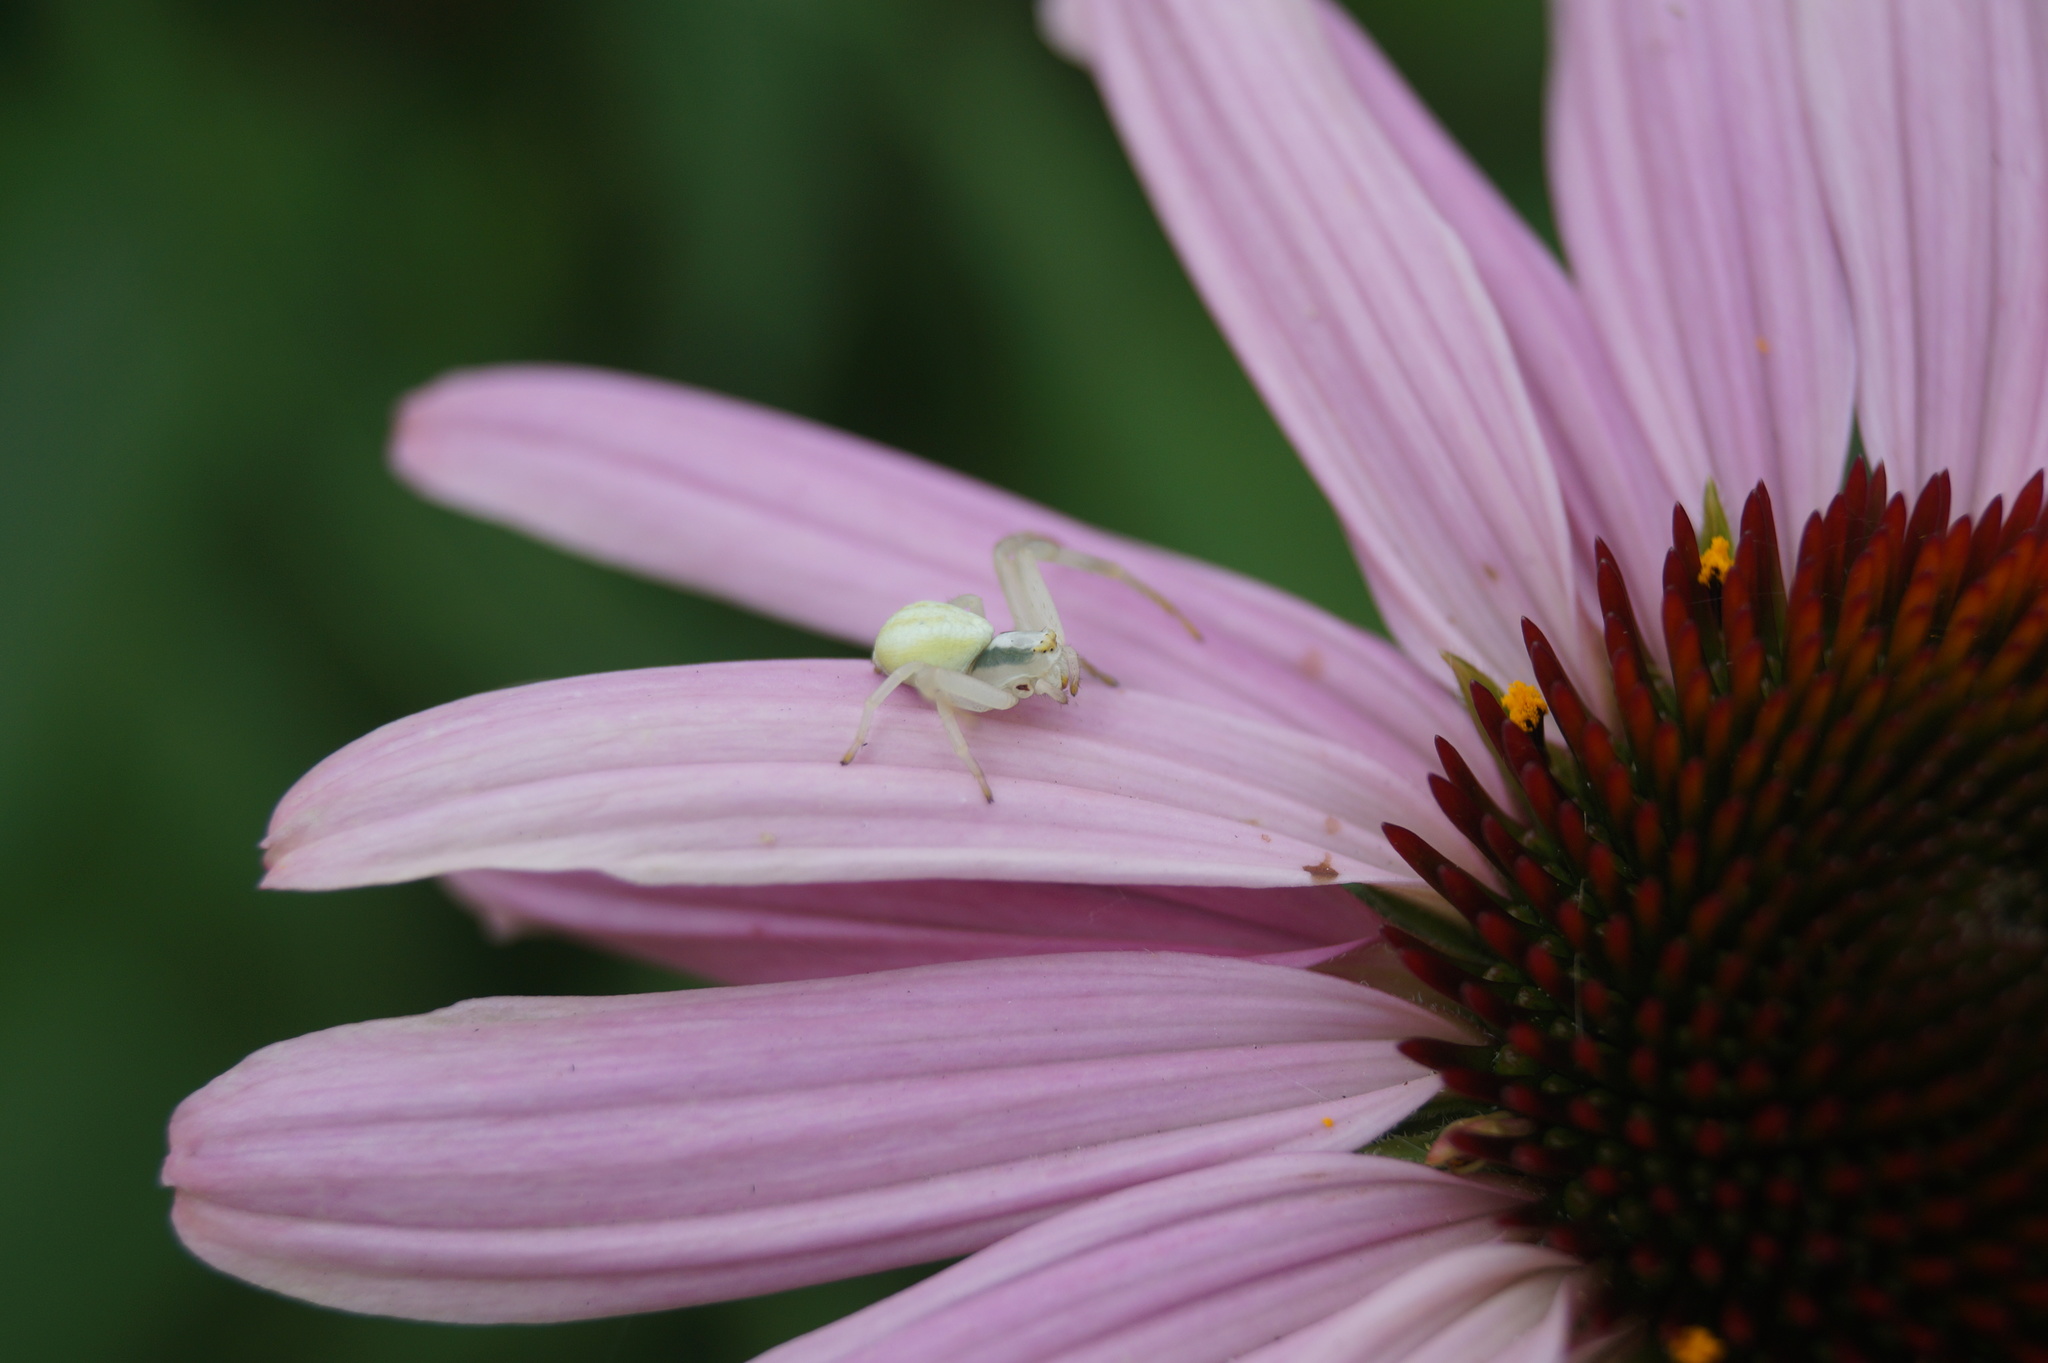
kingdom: Animalia
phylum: Arthropoda
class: Arachnida
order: Araneae
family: Thomisidae
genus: Misumena
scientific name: Misumena vatia
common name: Goldenrod crab spider
